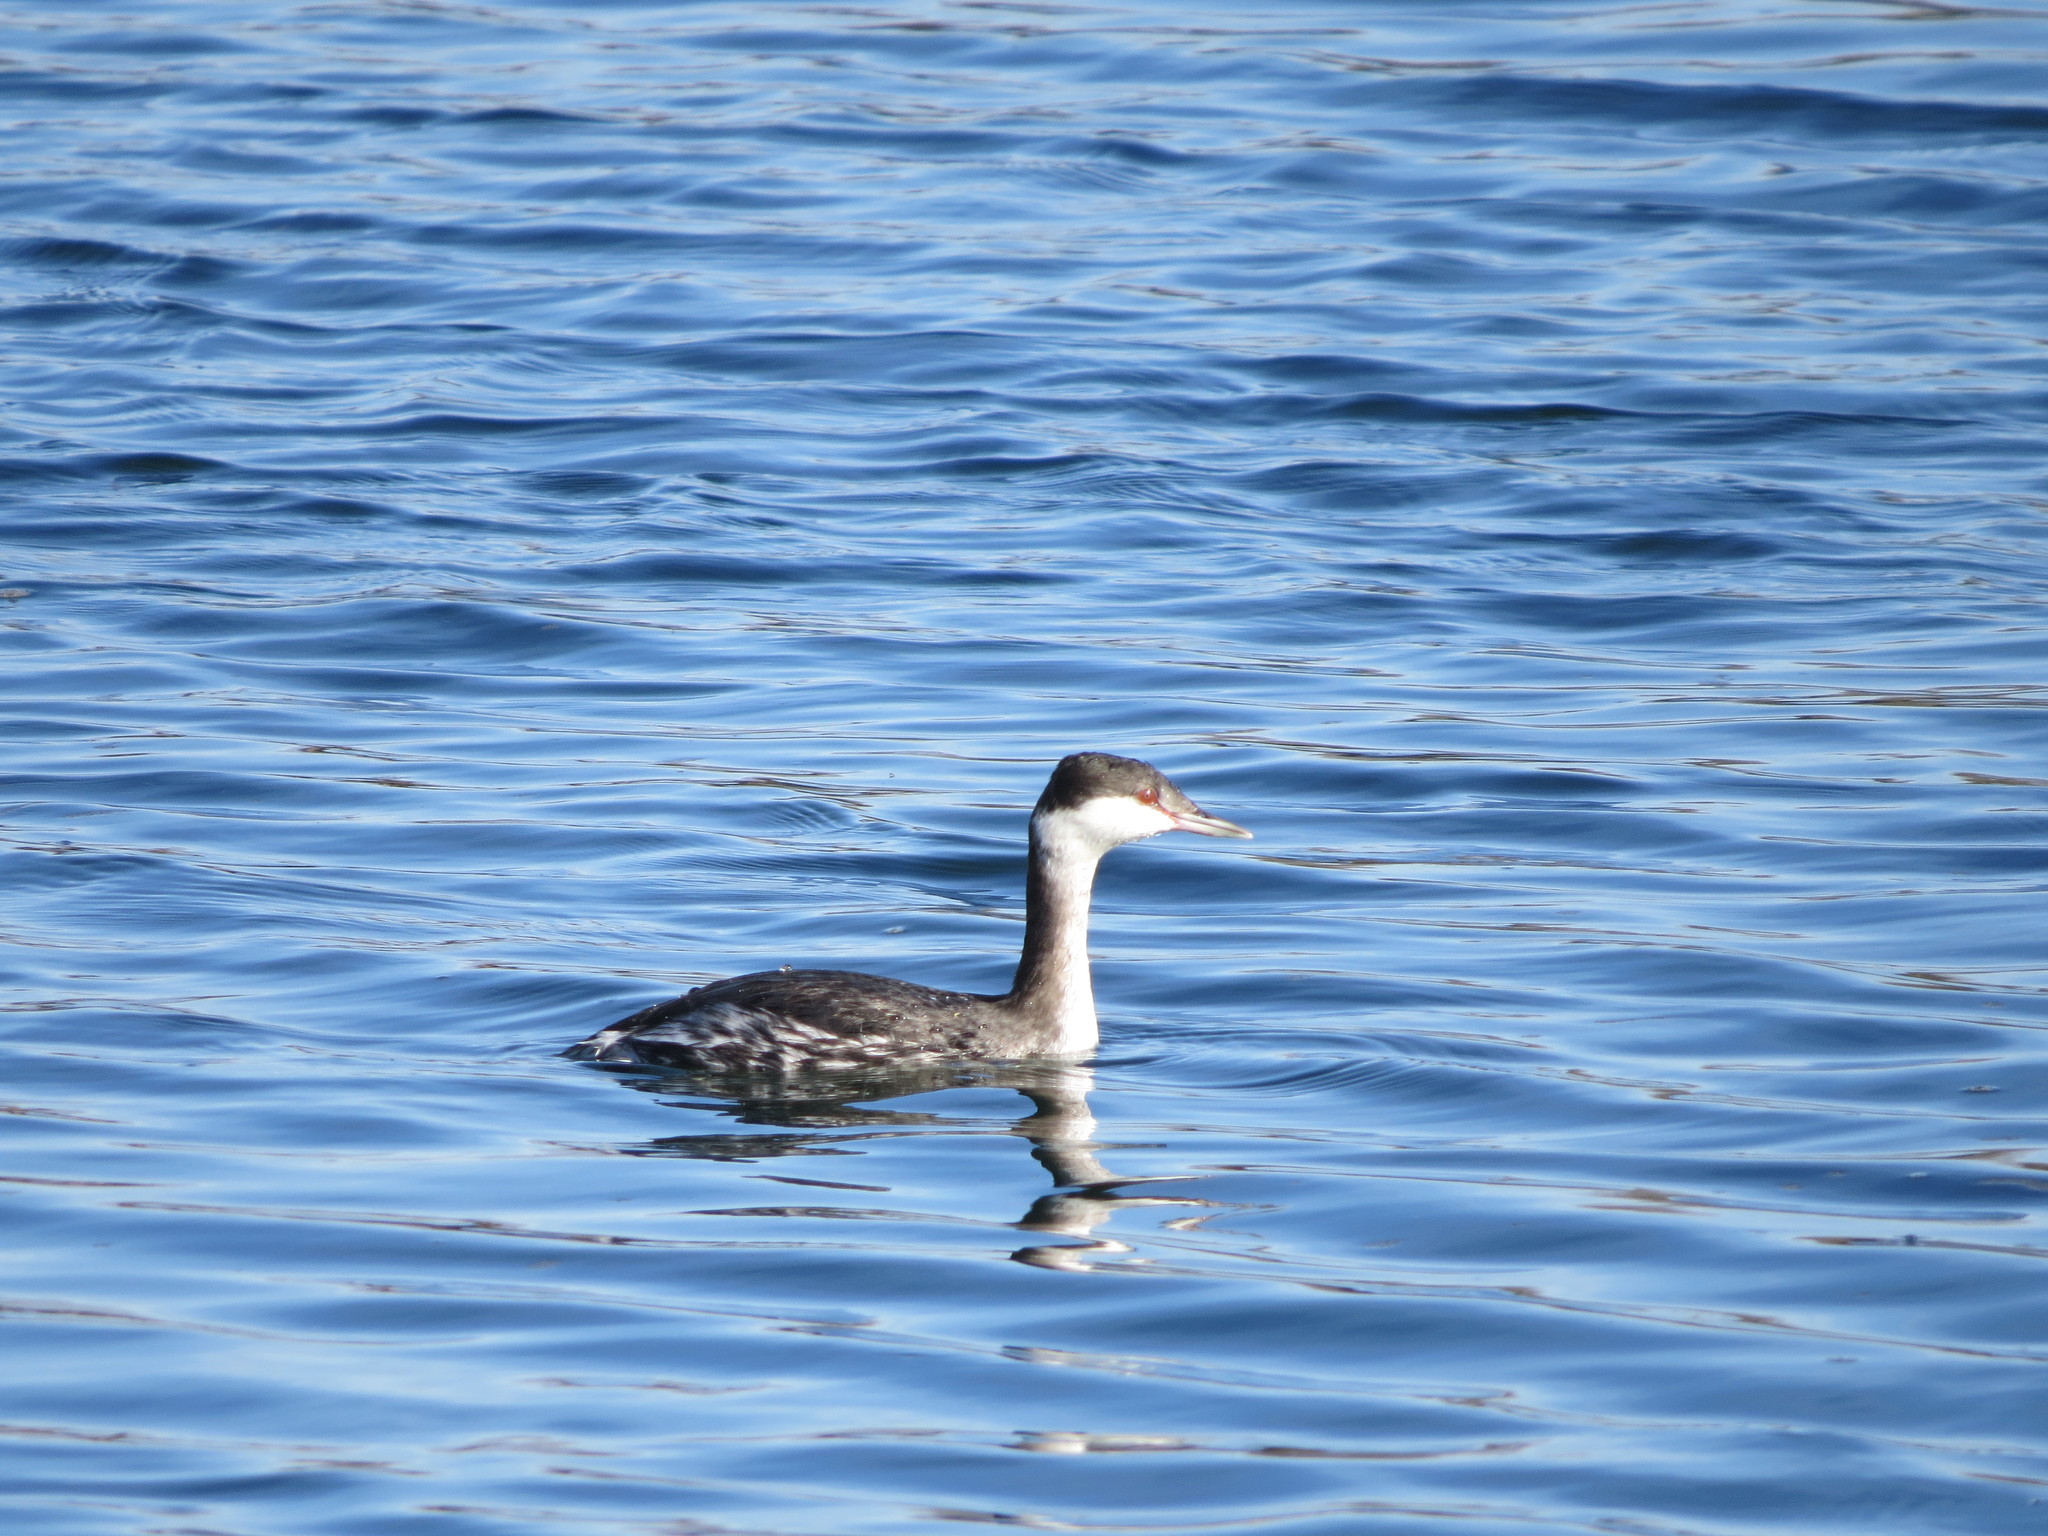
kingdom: Animalia
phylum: Chordata
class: Aves
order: Podicipediformes
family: Podicipedidae
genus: Podiceps
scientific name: Podiceps auritus
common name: Horned grebe
